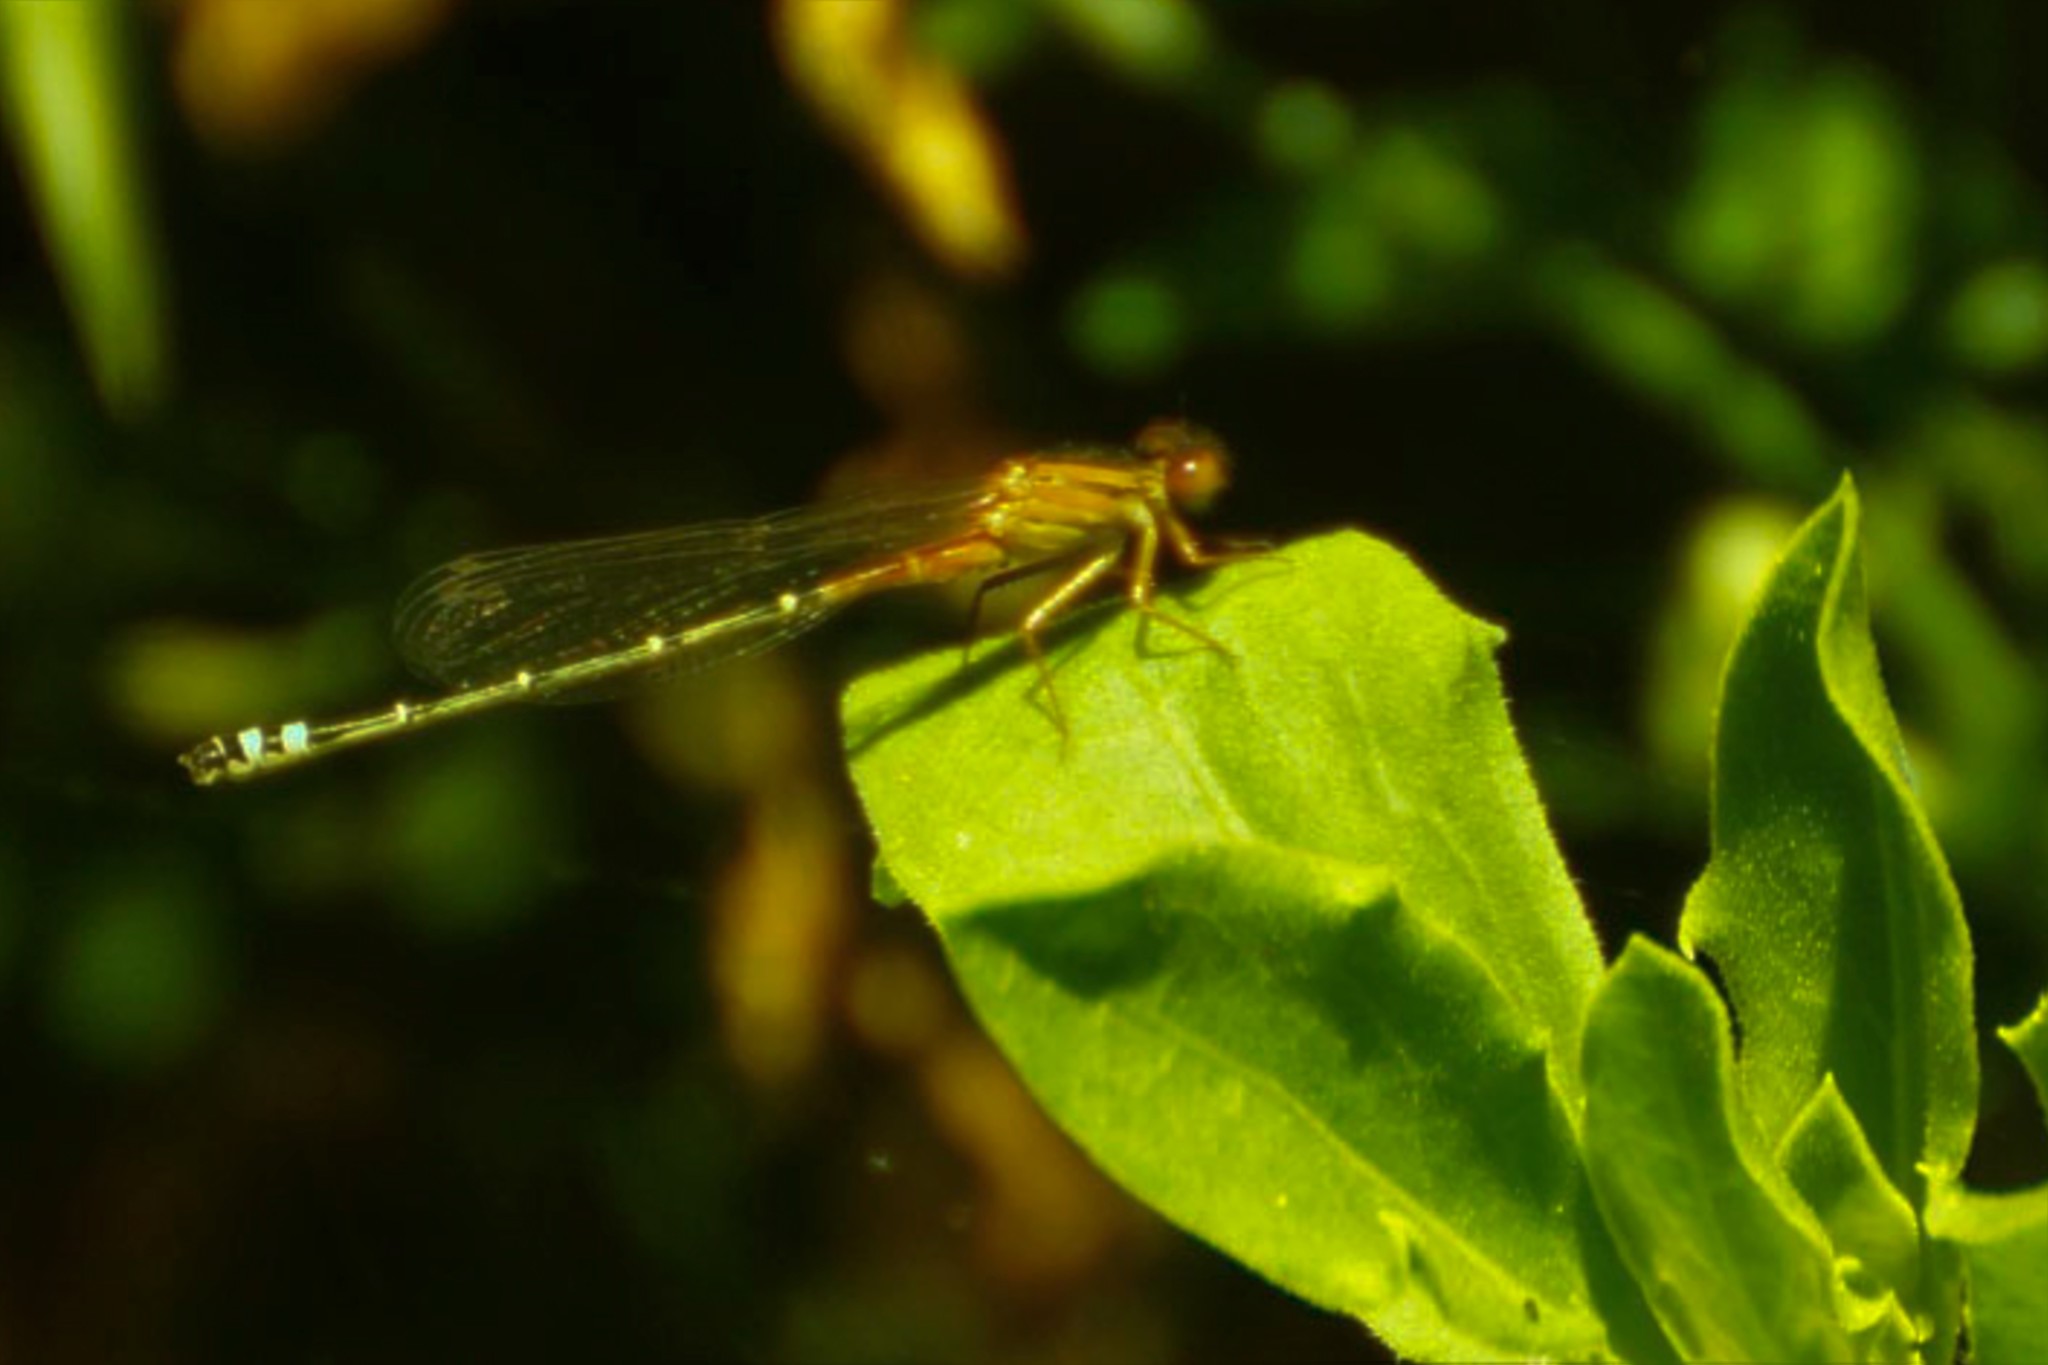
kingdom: Animalia
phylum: Arthropoda
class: Insecta
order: Odonata
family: Coenagrionidae
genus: Xanthagrion
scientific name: Xanthagrion erythroneurum
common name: Red and blue damsel
